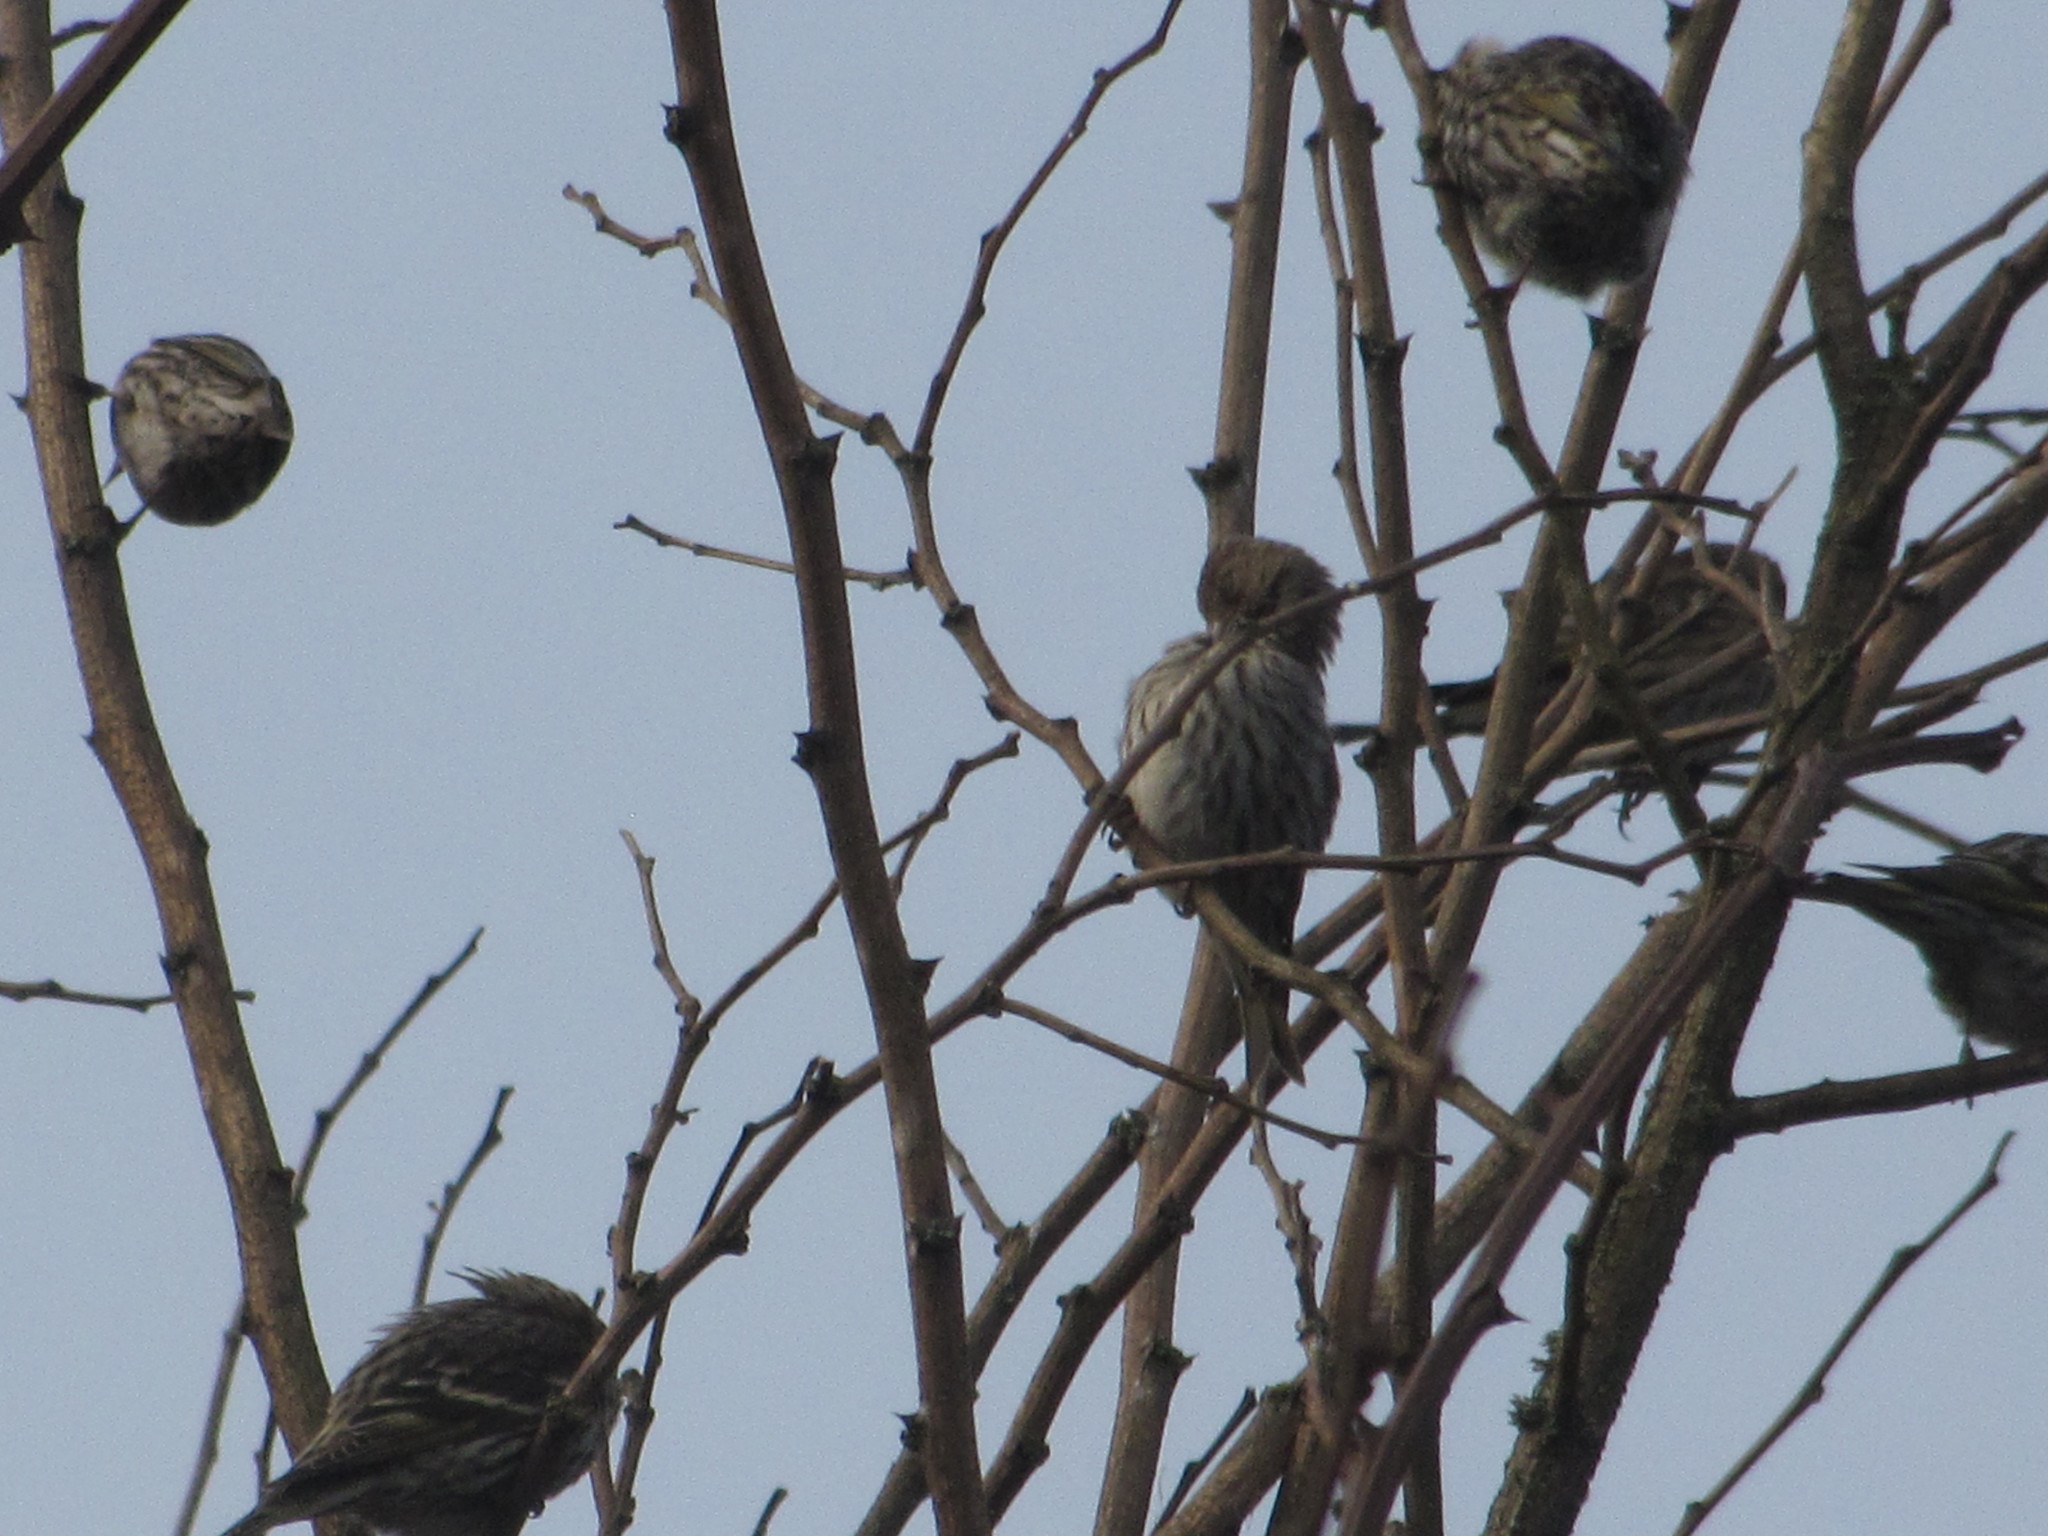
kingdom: Animalia
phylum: Chordata
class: Aves
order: Passeriformes
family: Fringillidae
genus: Spinus
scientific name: Spinus pinus
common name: Pine siskin
